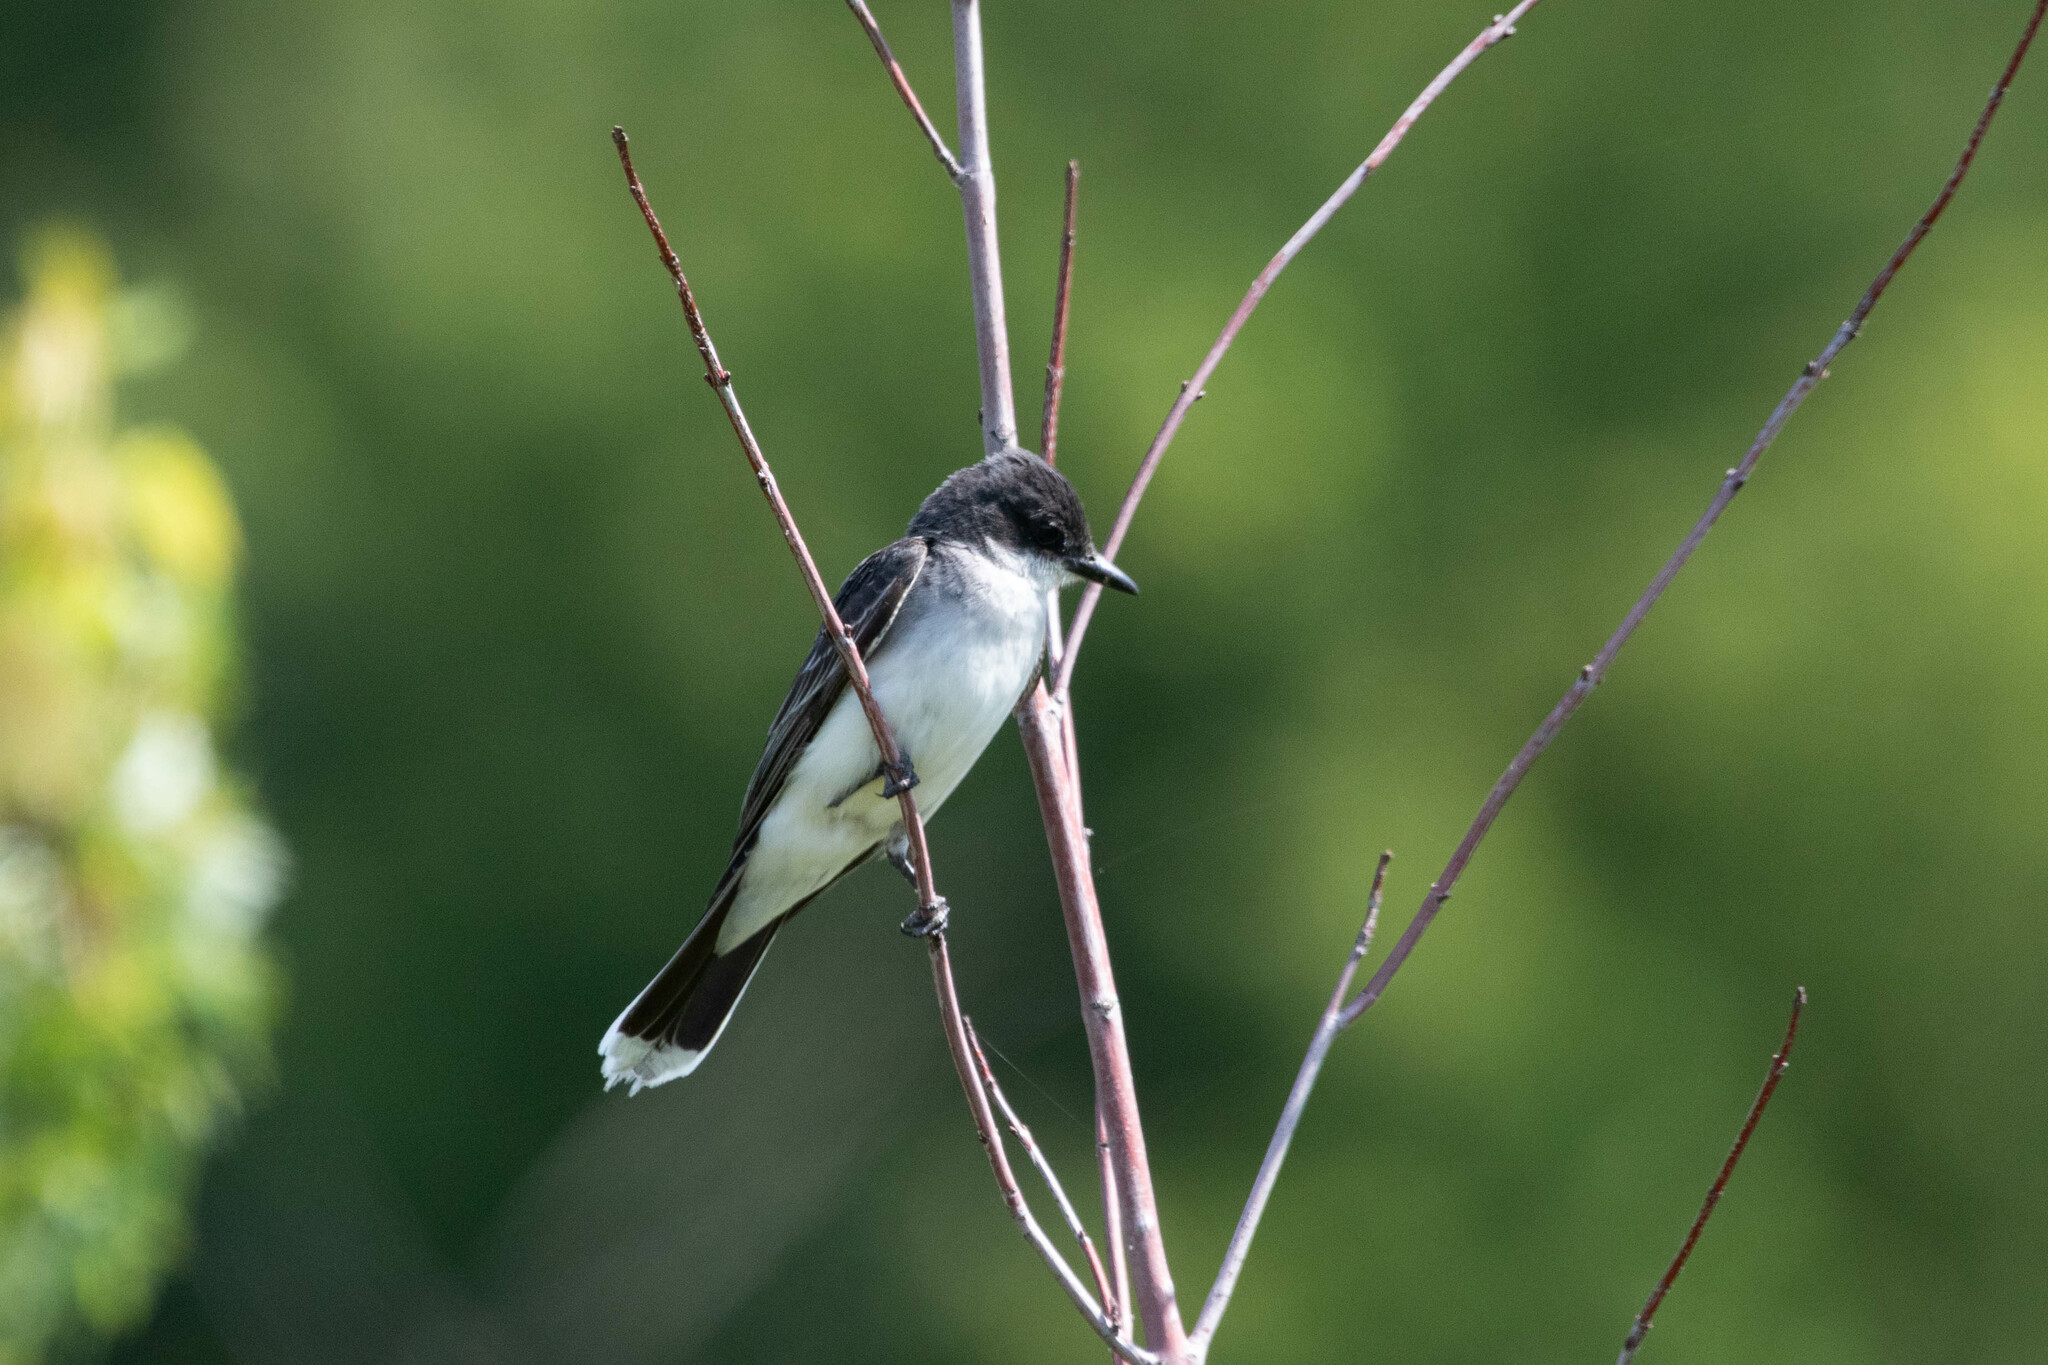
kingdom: Animalia
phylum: Chordata
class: Aves
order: Passeriformes
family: Tyrannidae
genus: Tyrannus
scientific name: Tyrannus tyrannus
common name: Eastern kingbird
